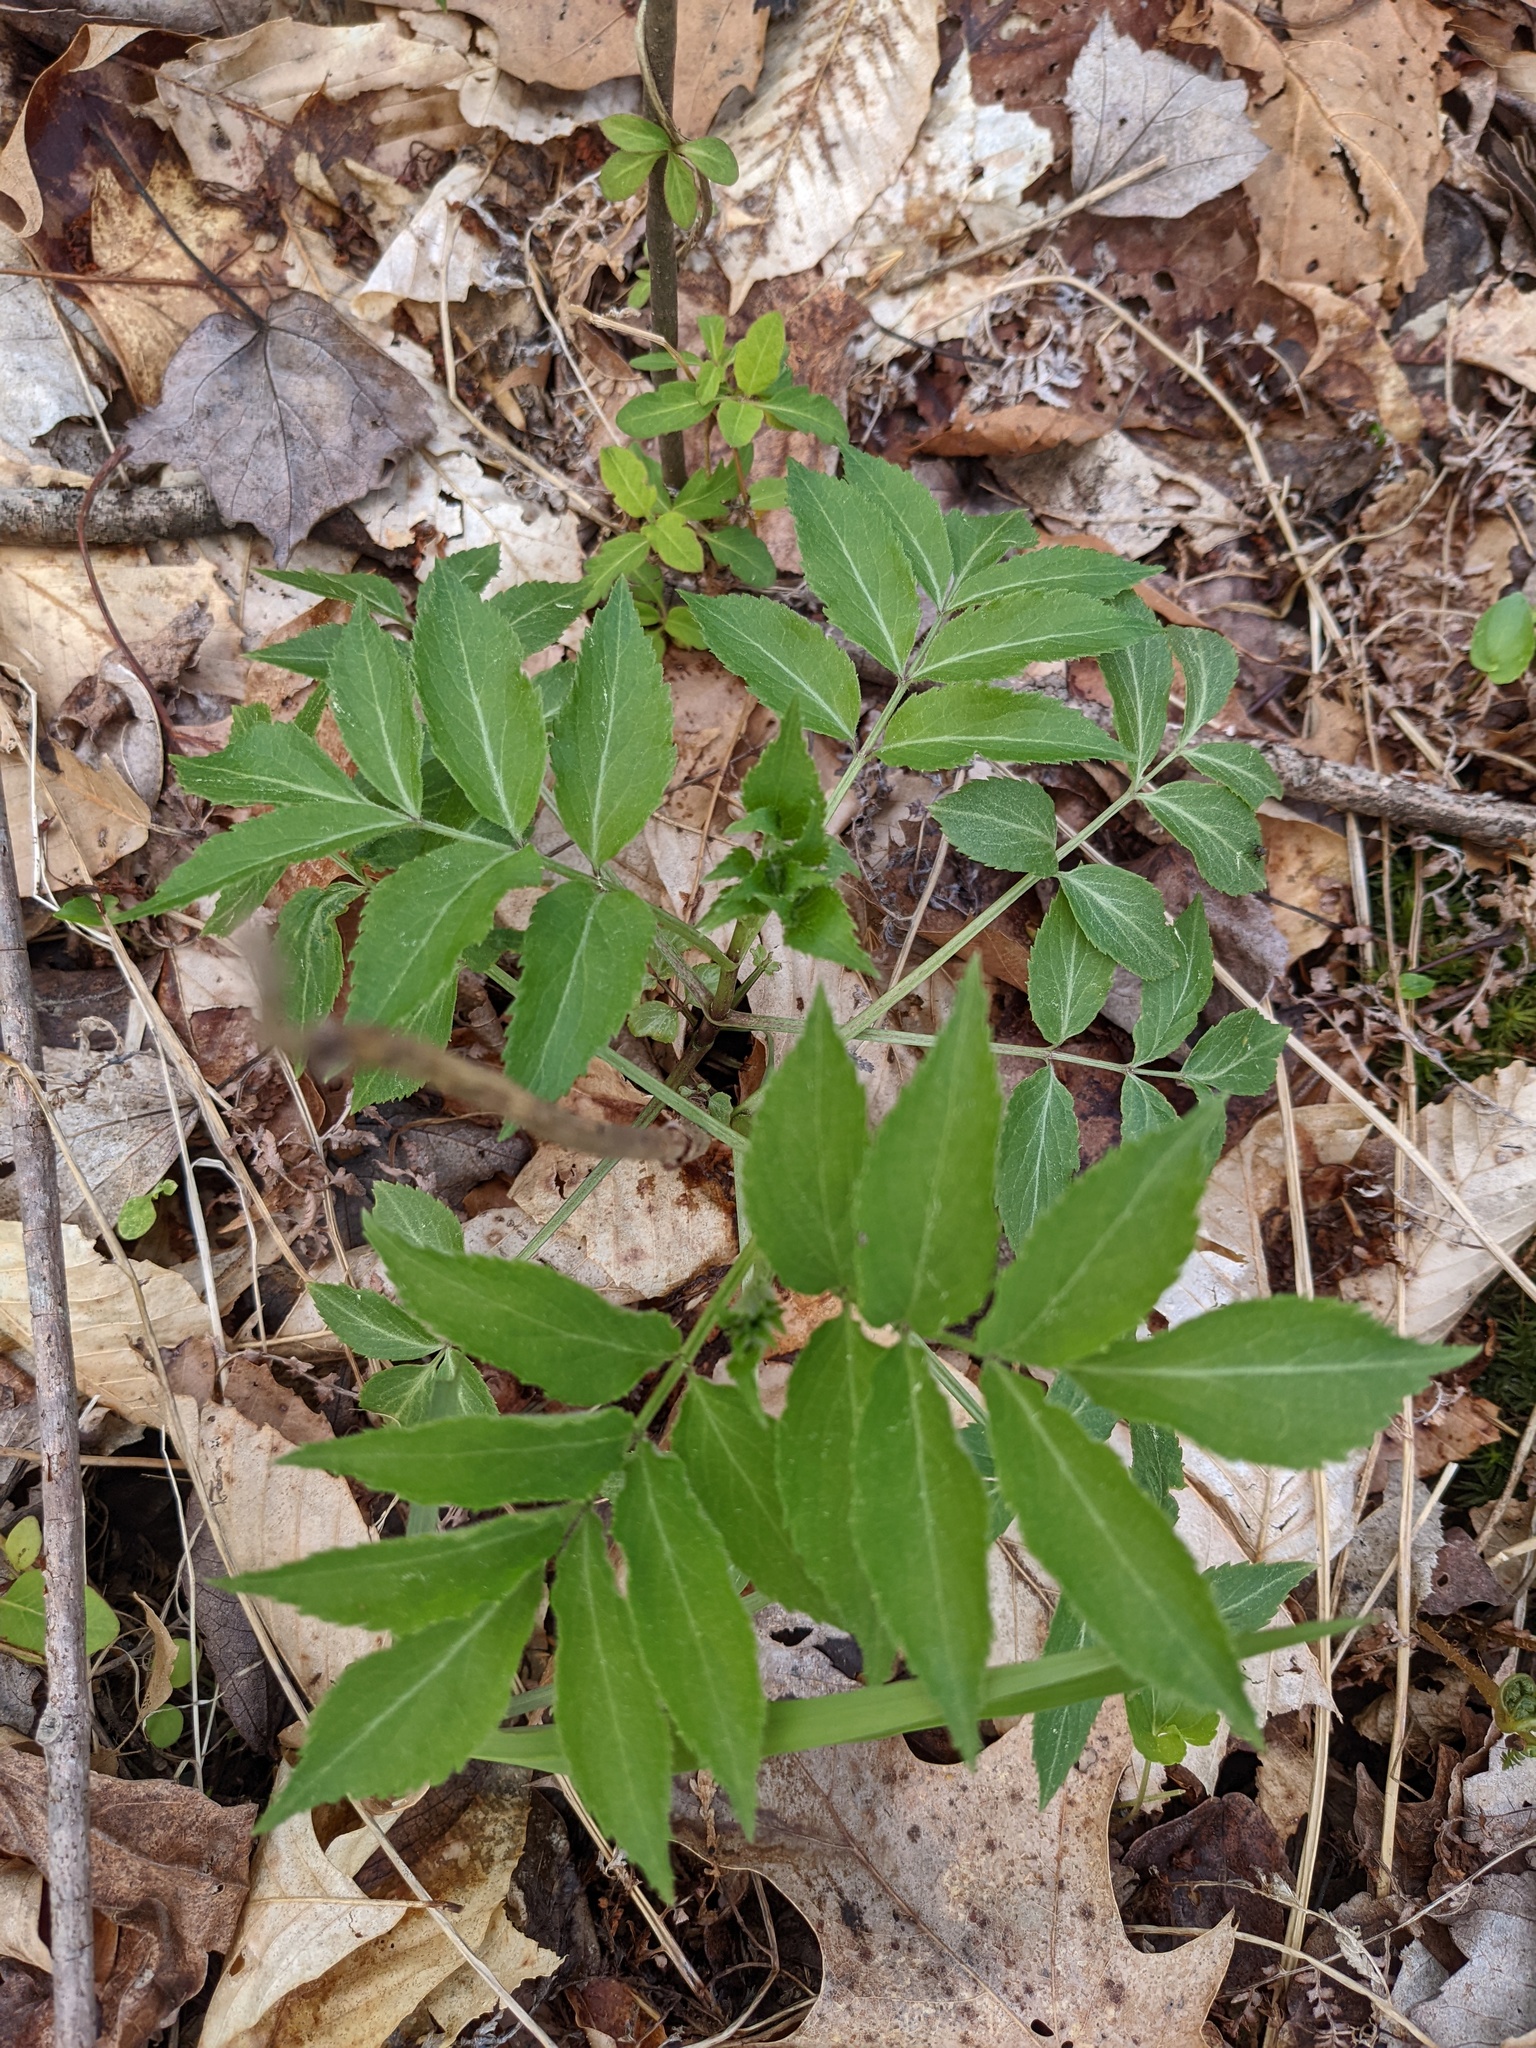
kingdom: Plantae
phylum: Tracheophyta
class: Magnoliopsida
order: Dipsacales
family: Viburnaceae
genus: Sambucus
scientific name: Sambucus canadensis
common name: American elder
